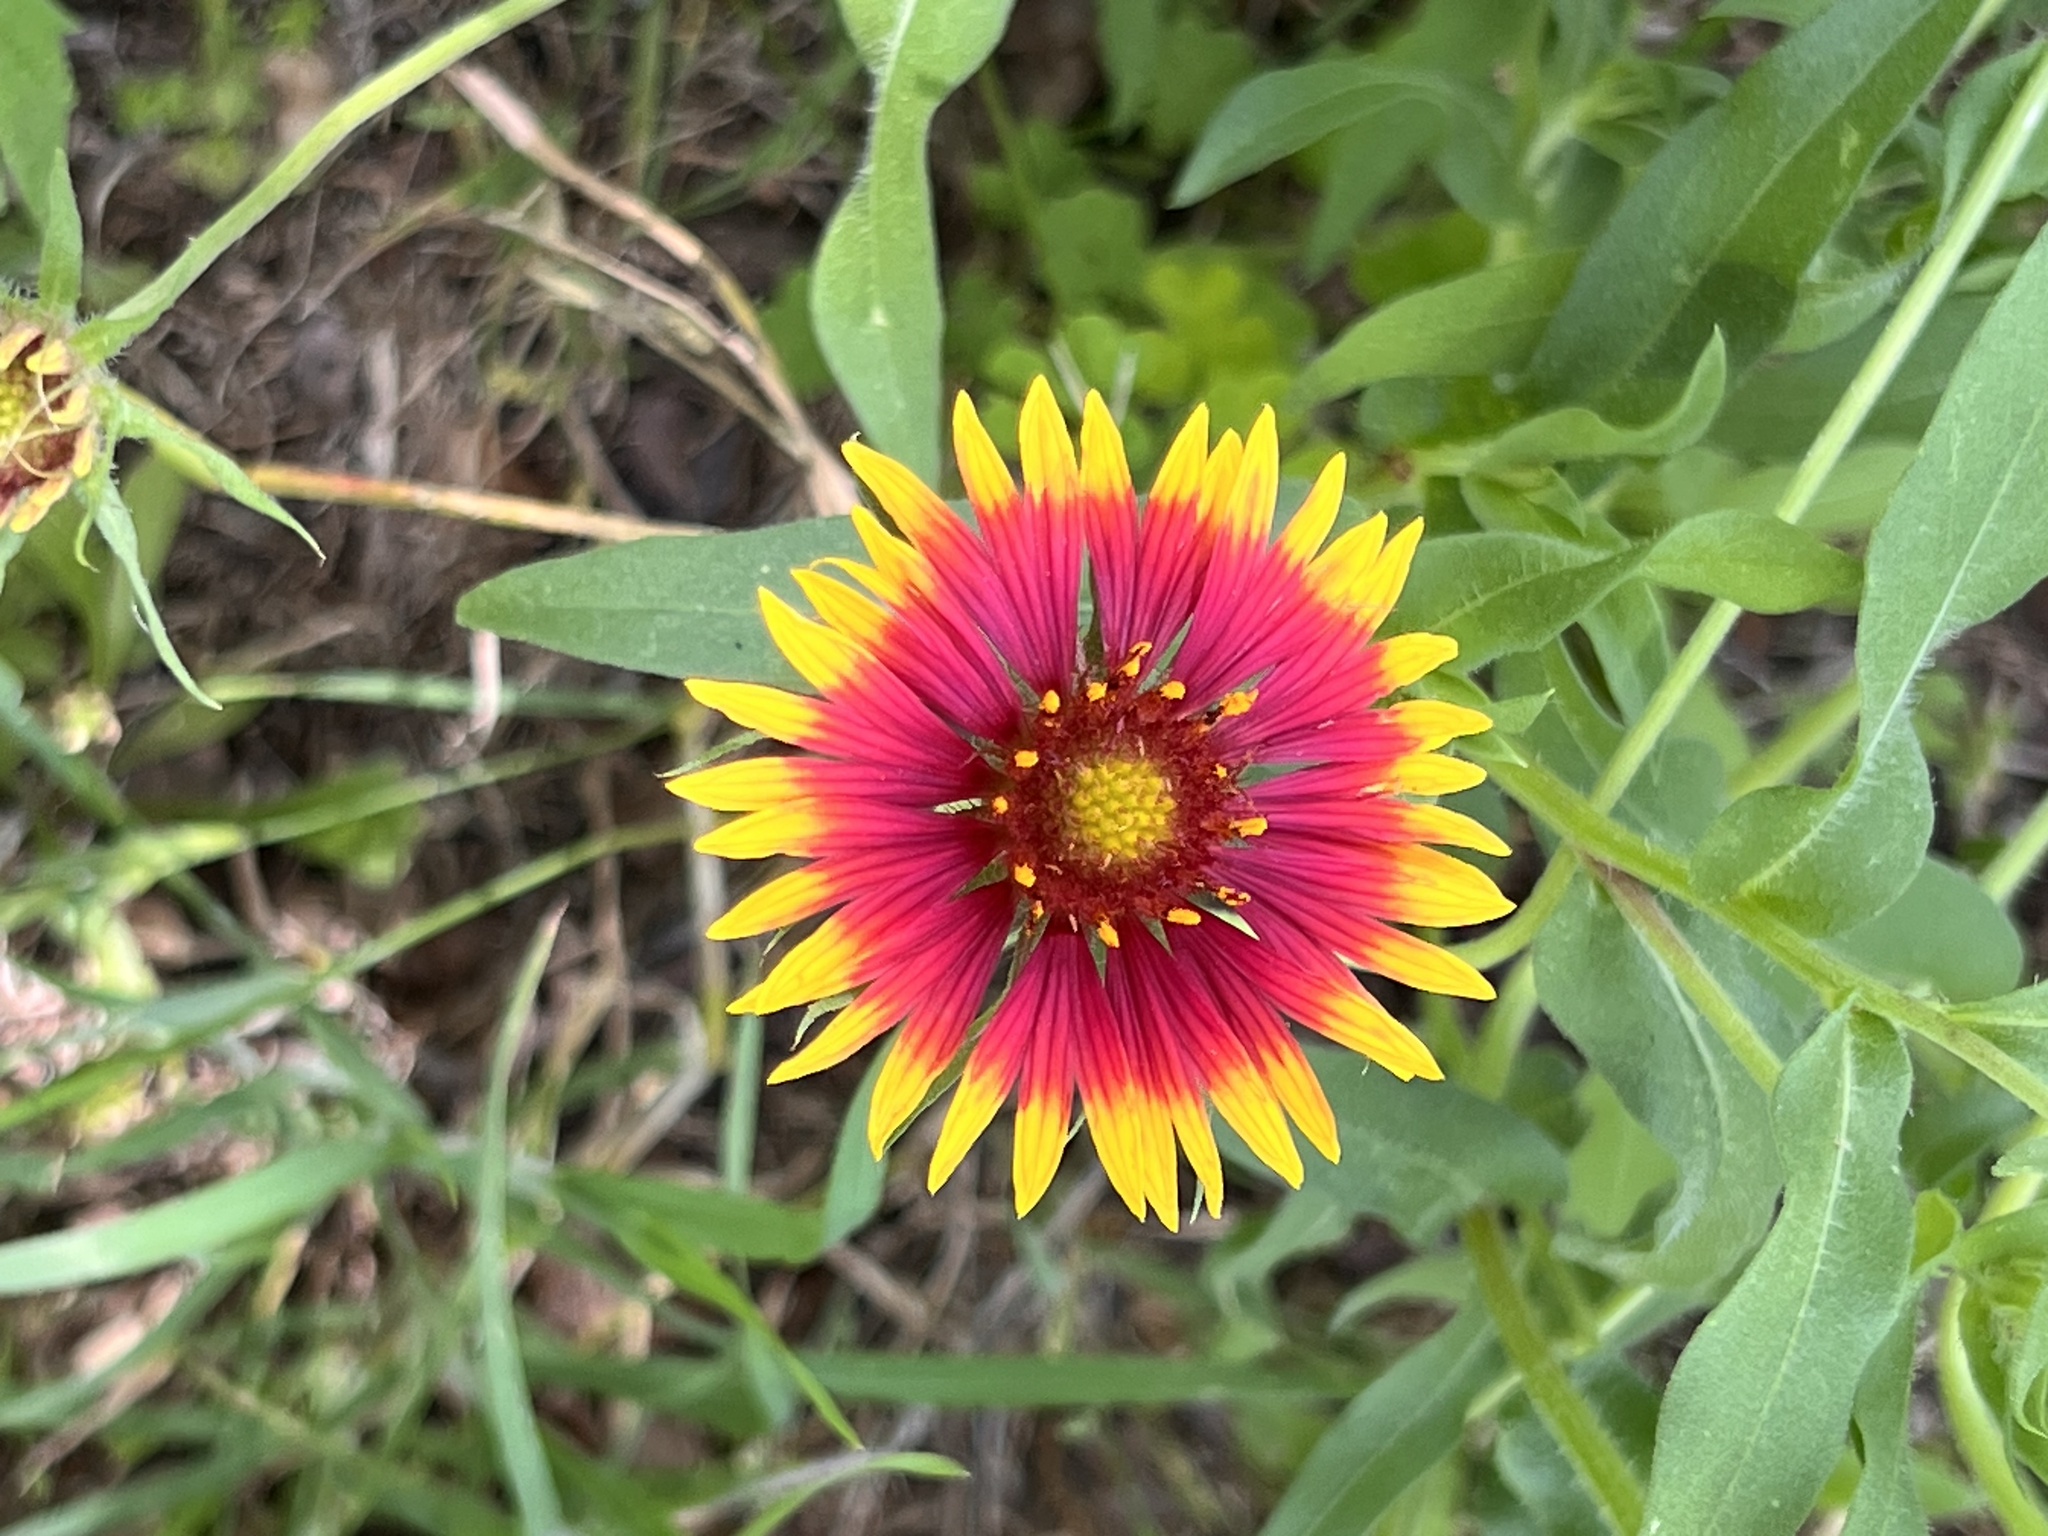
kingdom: Plantae
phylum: Tracheophyta
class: Magnoliopsida
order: Asterales
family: Asteraceae
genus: Gaillardia
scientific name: Gaillardia pulchella
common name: Firewheel
